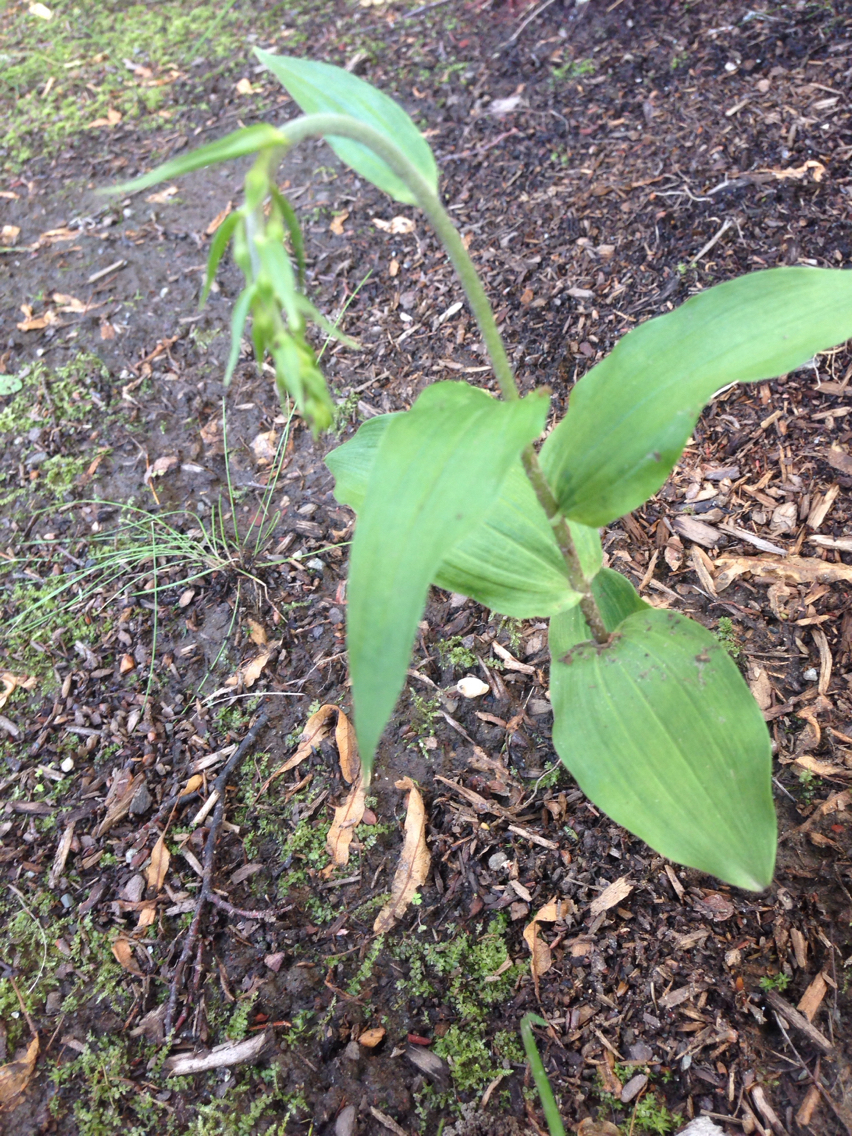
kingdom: Plantae
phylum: Tracheophyta
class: Liliopsida
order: Asparagales
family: Orchidaceae
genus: Epipactis
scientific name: Epipactis helleborine
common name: Broad-leaved helleborine
